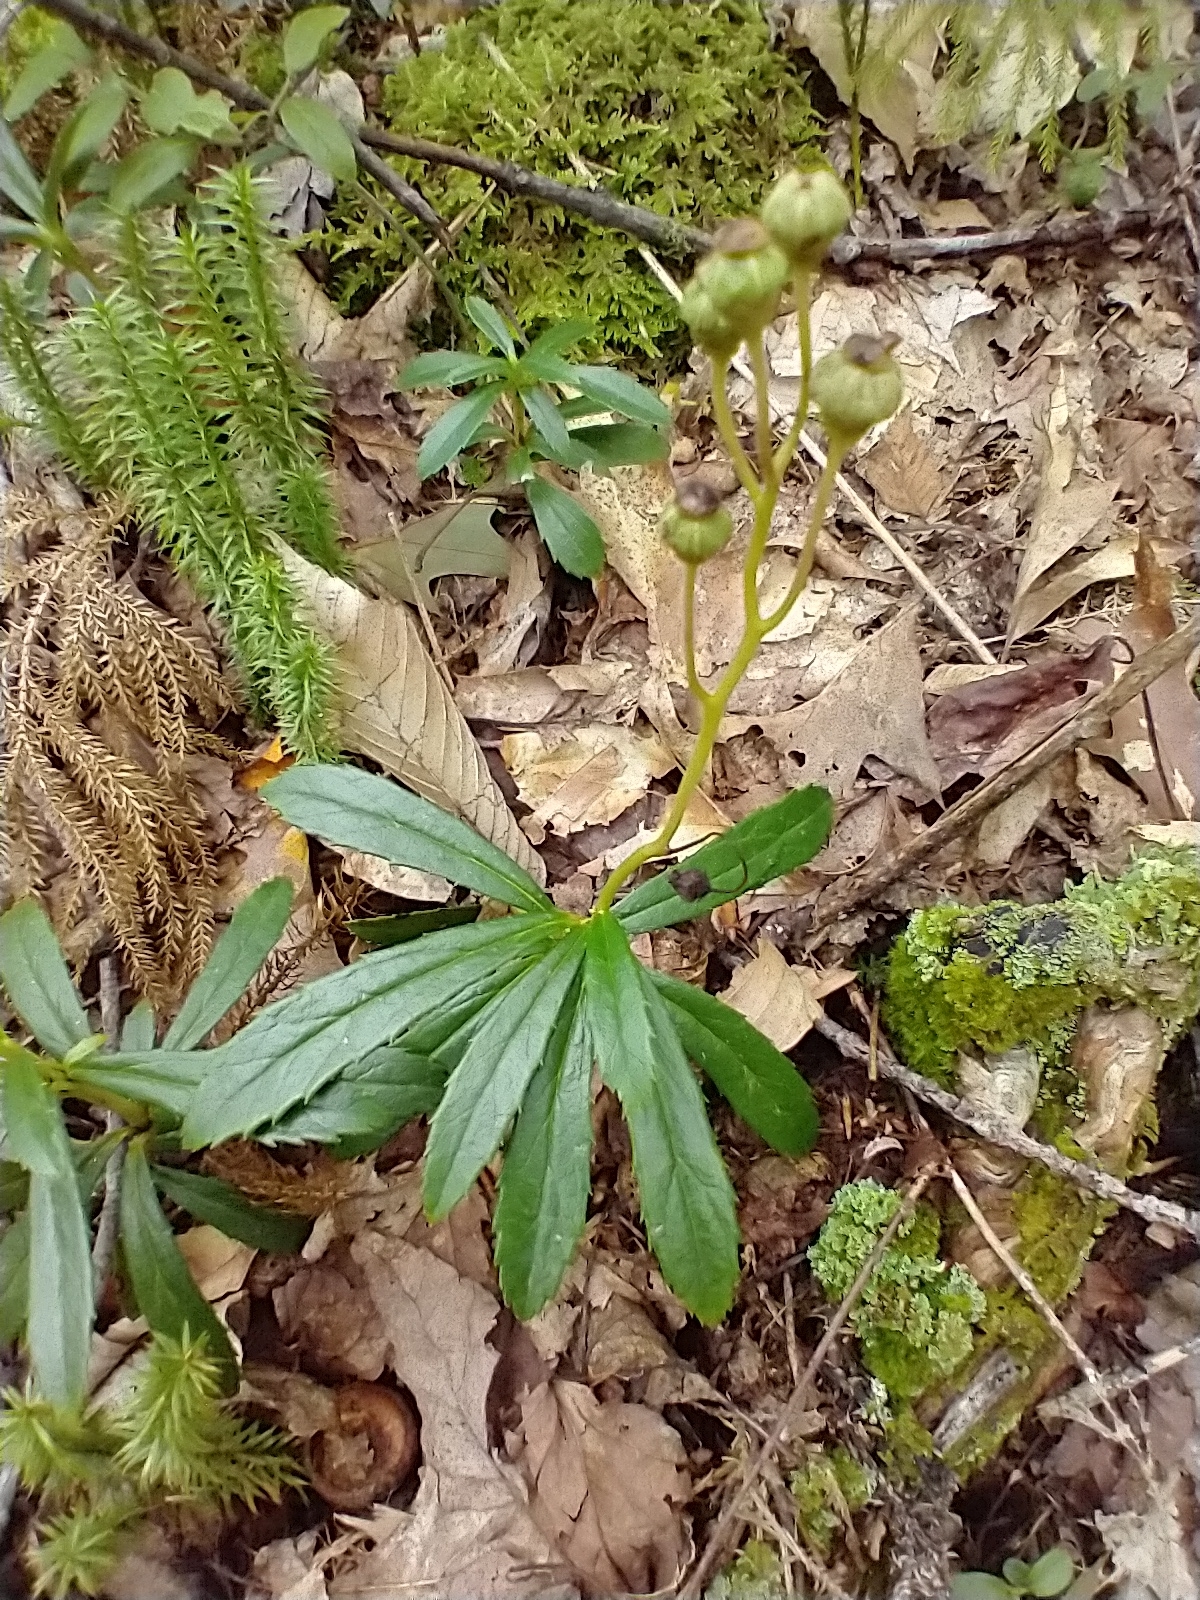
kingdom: Plantae
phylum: Tracheophyta
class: Magnoliopsida
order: Ericales
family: Ericaceae
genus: Chimaphila
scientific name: Chimaphila umbellata
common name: Pipsissewa
